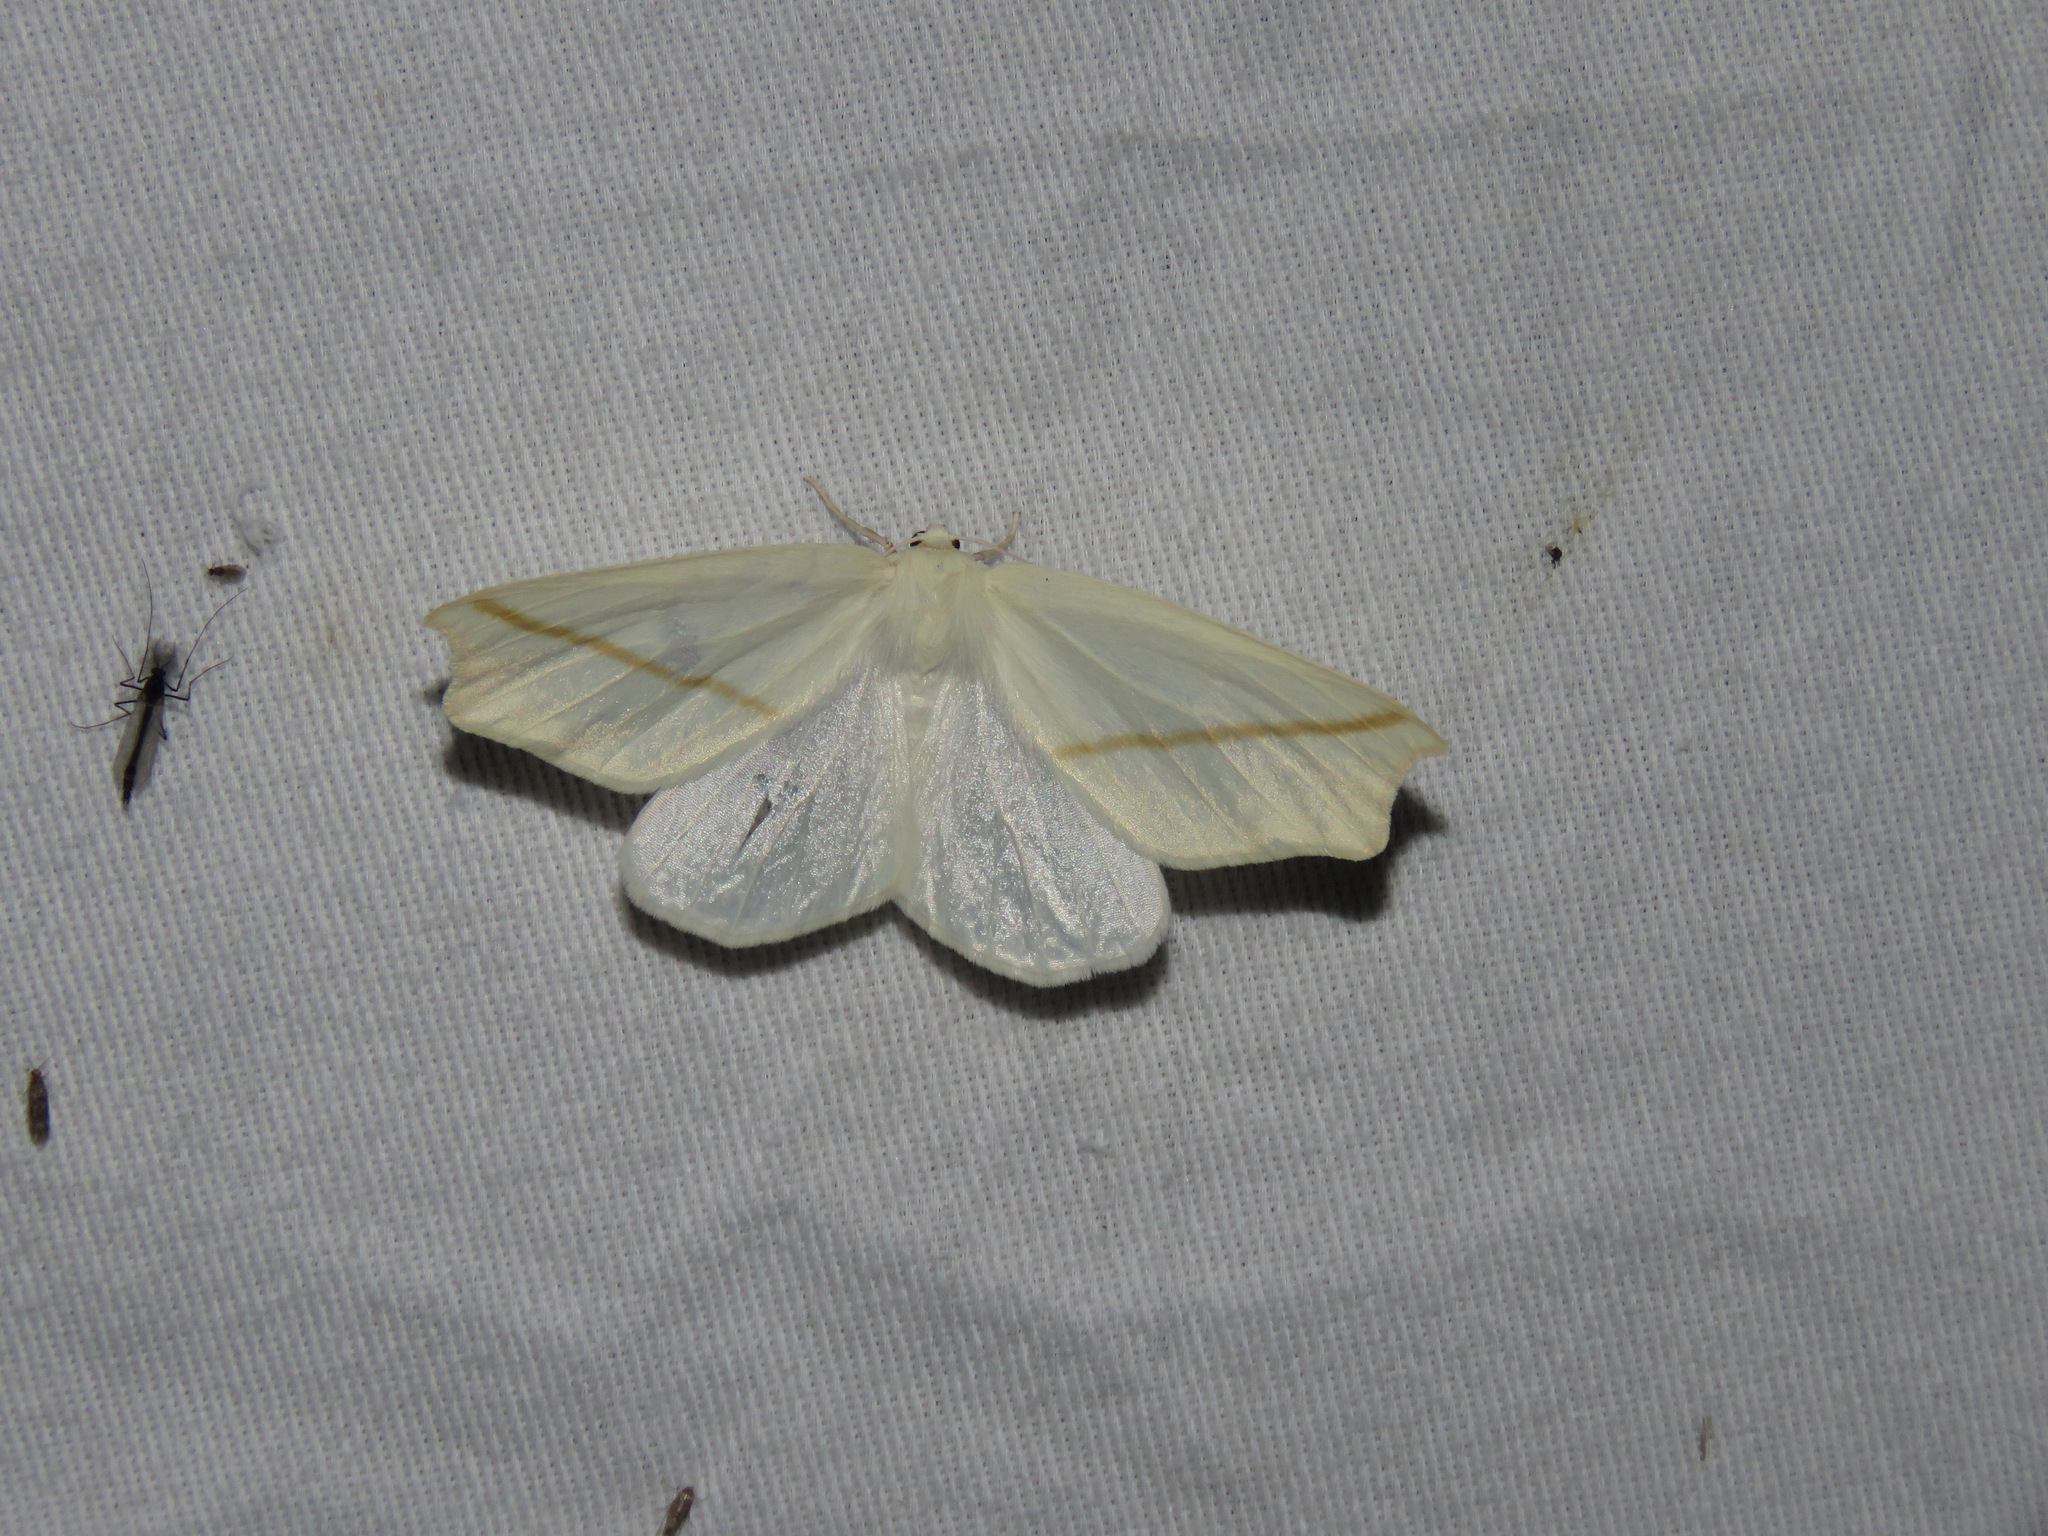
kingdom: Animalia
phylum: Arthropoda
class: Insecta
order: Lepidoptera
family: Geometridae
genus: Tetracis
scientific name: Tetracis cachexiata
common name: White slant-line
